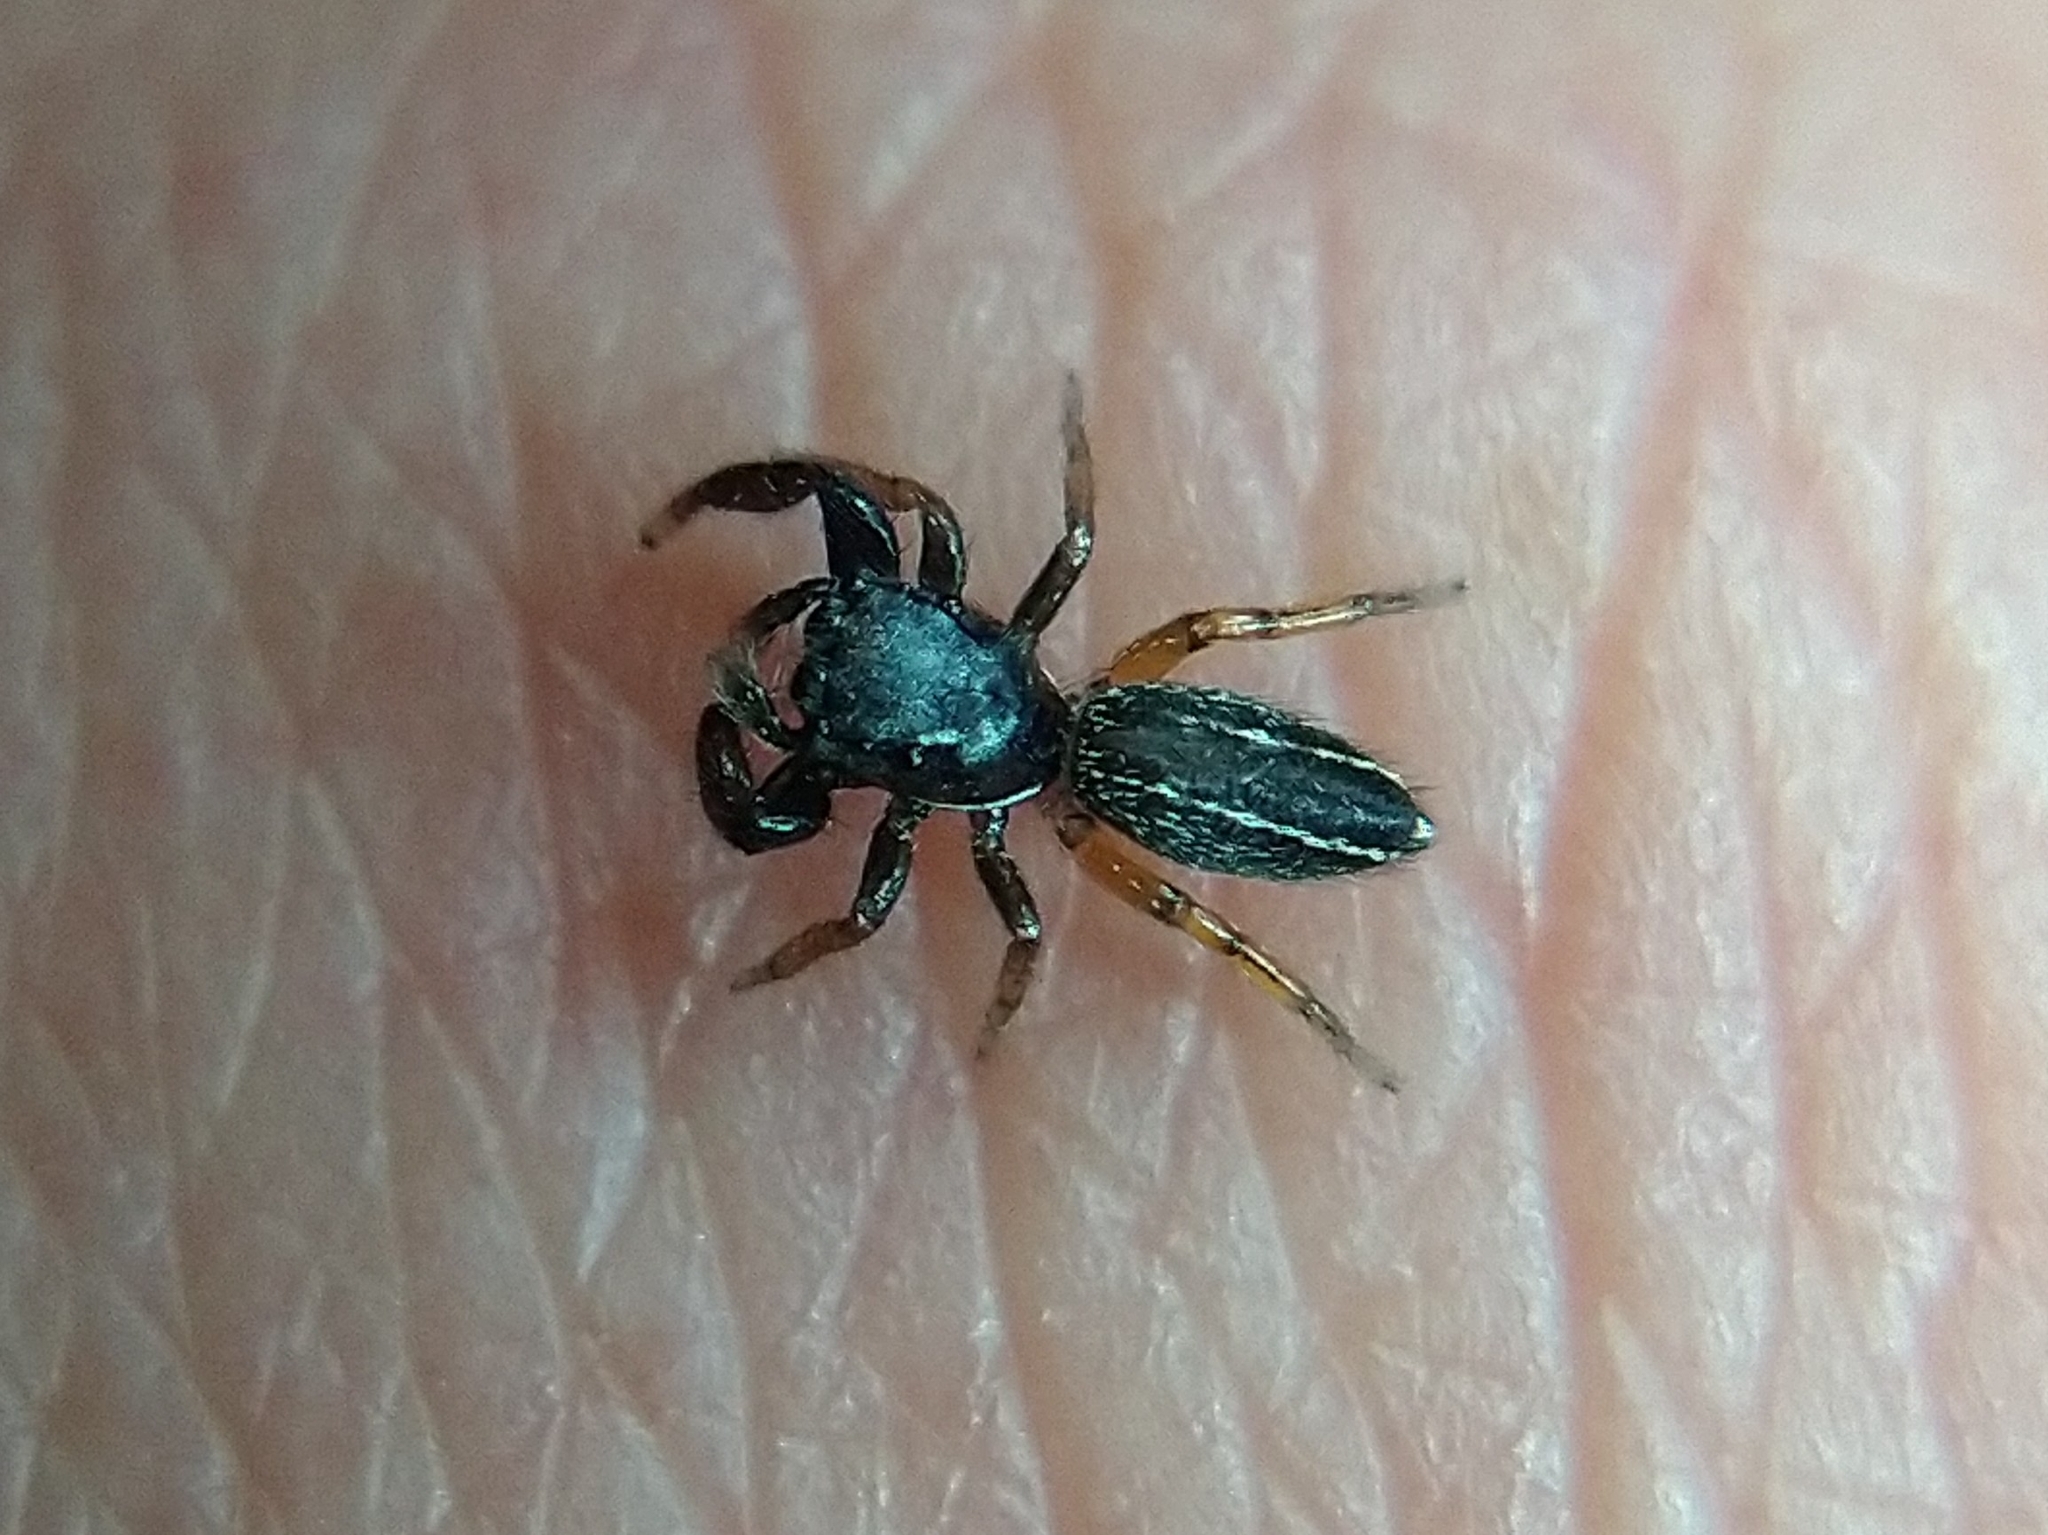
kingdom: Animalia
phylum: Arthropoda
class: Arachnida
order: Araneae
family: Salticidae
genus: Metacyrba
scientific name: Metacyrba taeniola
